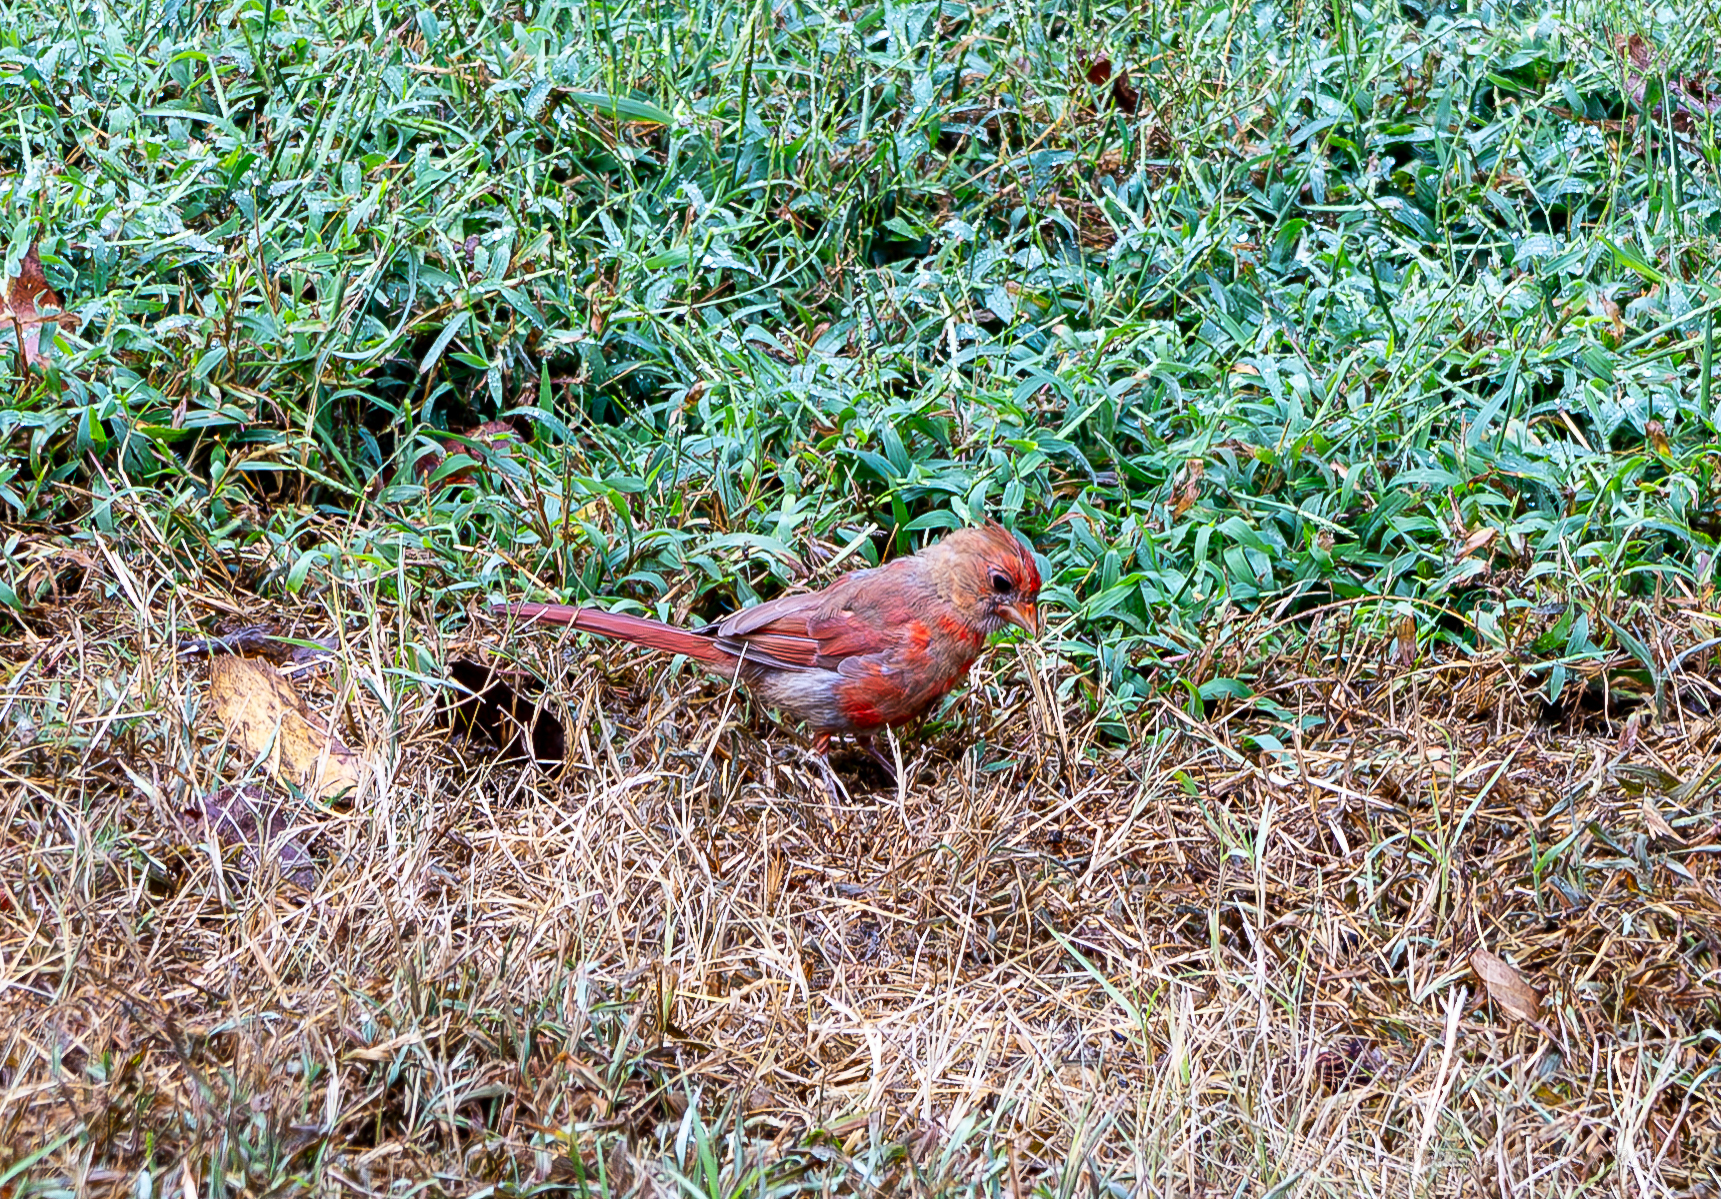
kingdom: Animalia
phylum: Chordata
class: Aves
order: Passeriformes
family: Cardinalidae
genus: Cardinalis
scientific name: Cardinalis cardinalis
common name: Northern cardinal
